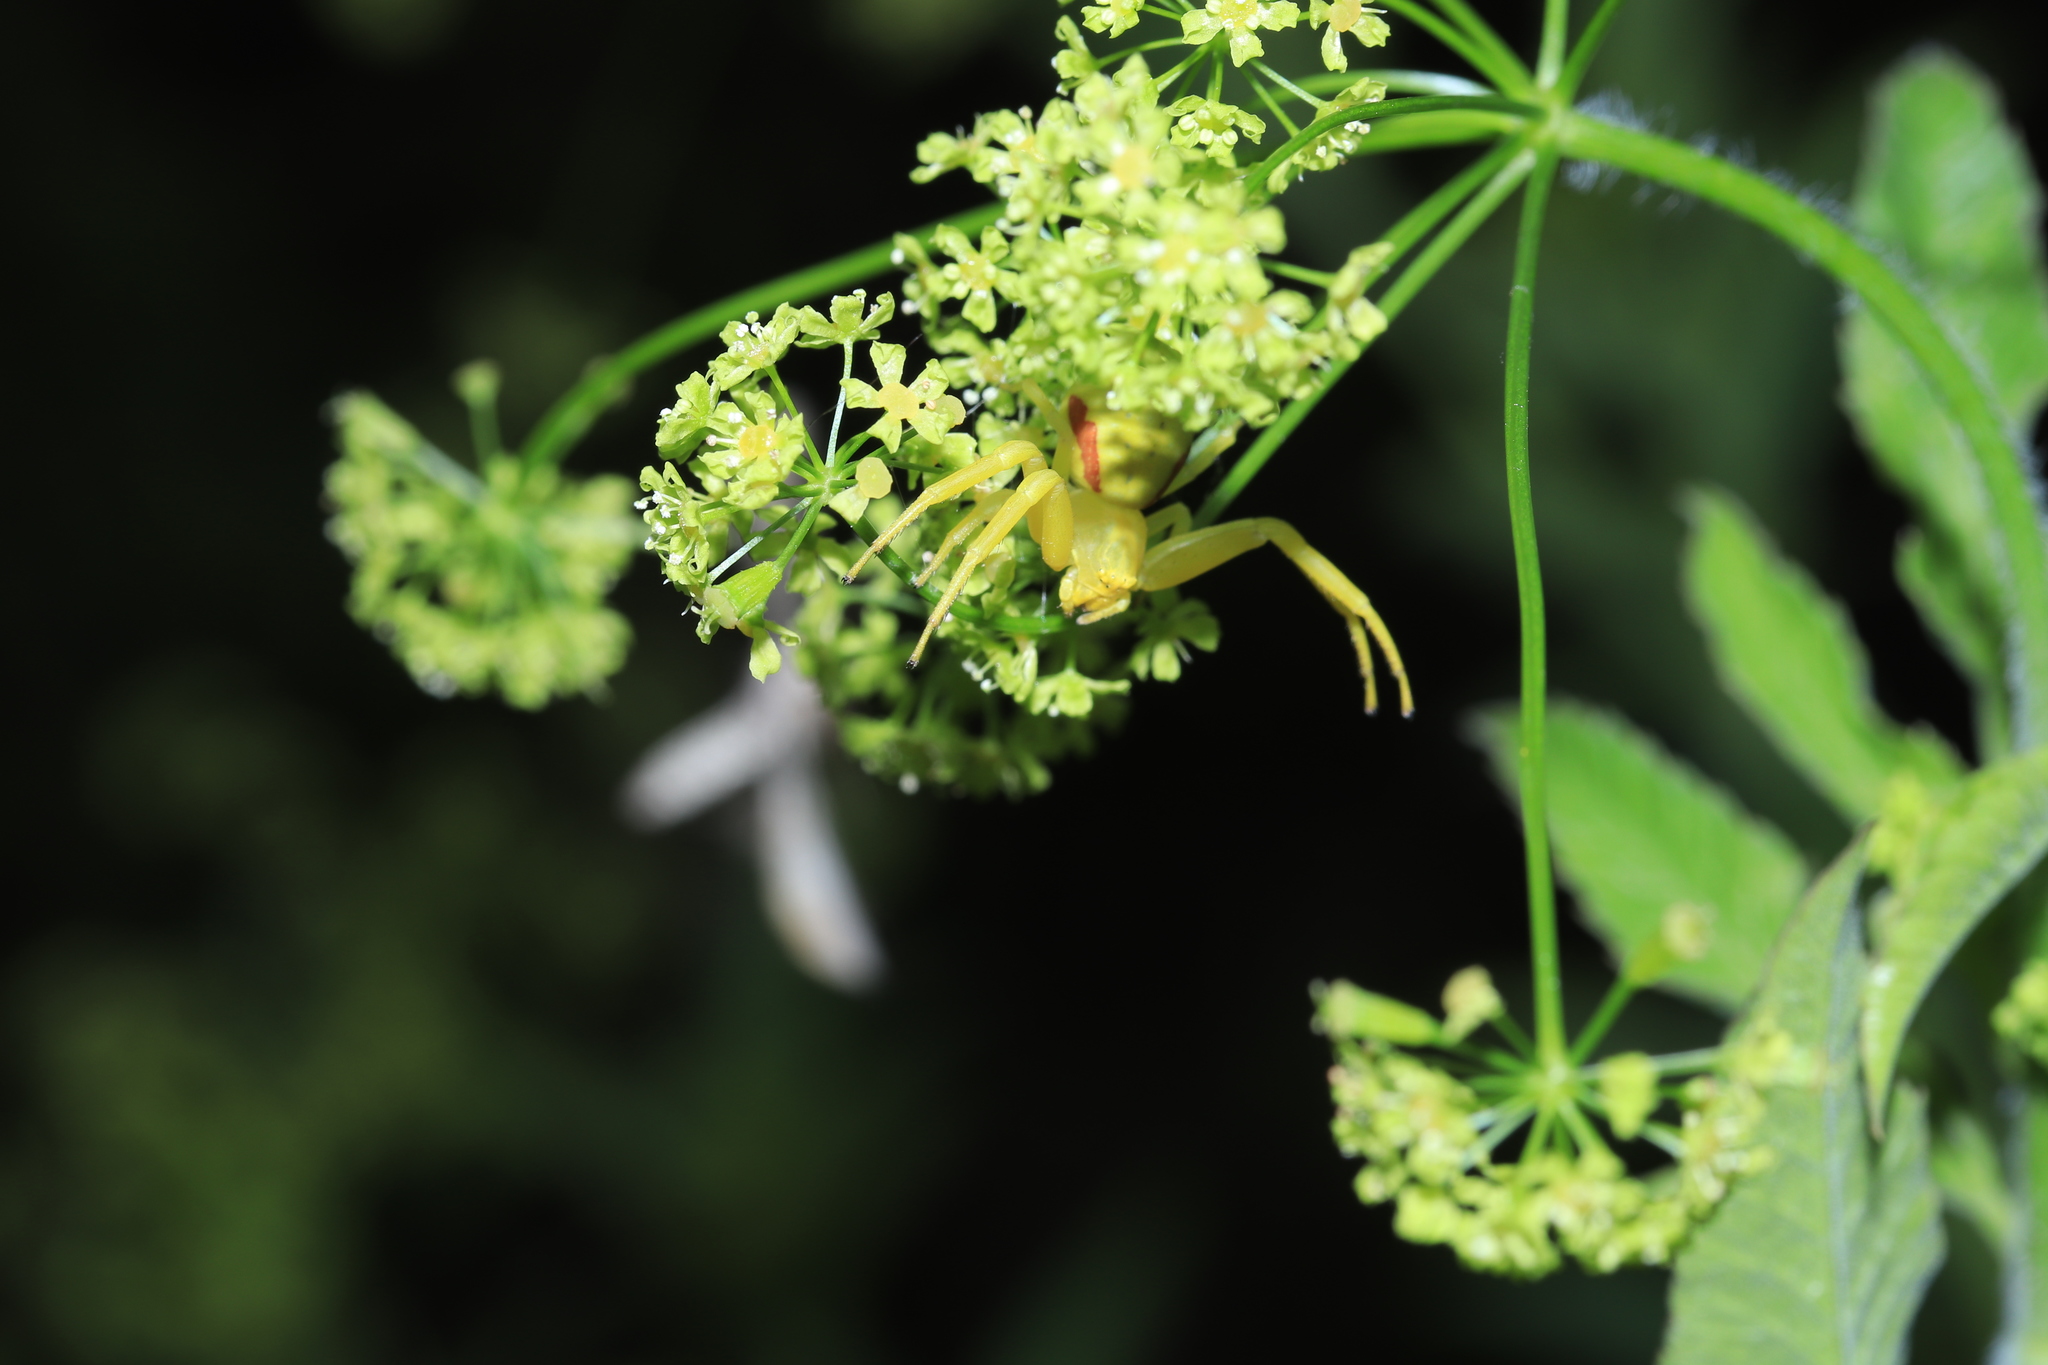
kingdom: Animalia
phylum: Arthropoda
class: Arachnida
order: Araneae
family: Thomisidae
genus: Misumena
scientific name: Misumena vatia
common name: Goldenrod crab spider
